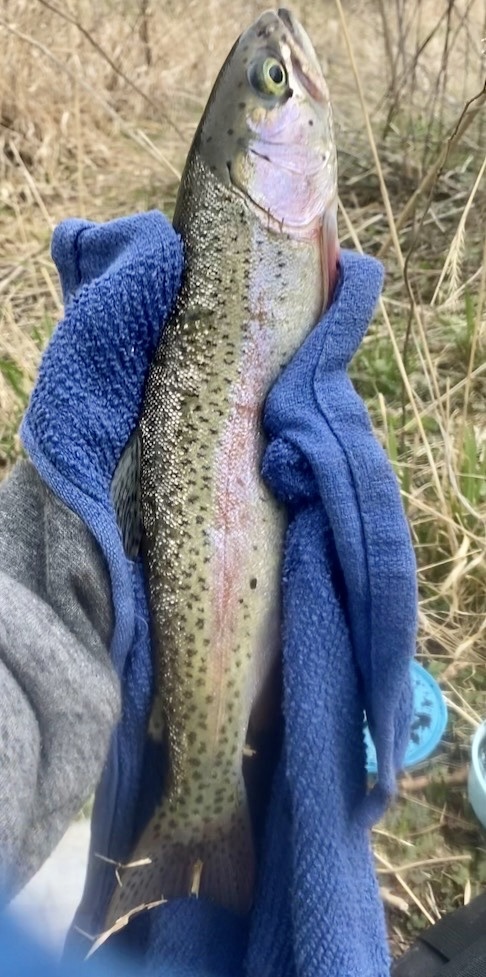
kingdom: Animalia
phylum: Chordata
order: Salmoniformes
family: Salmonidae
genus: Oncorhynchus
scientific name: Oncorhynchus mykiss
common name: Rainbow trout
